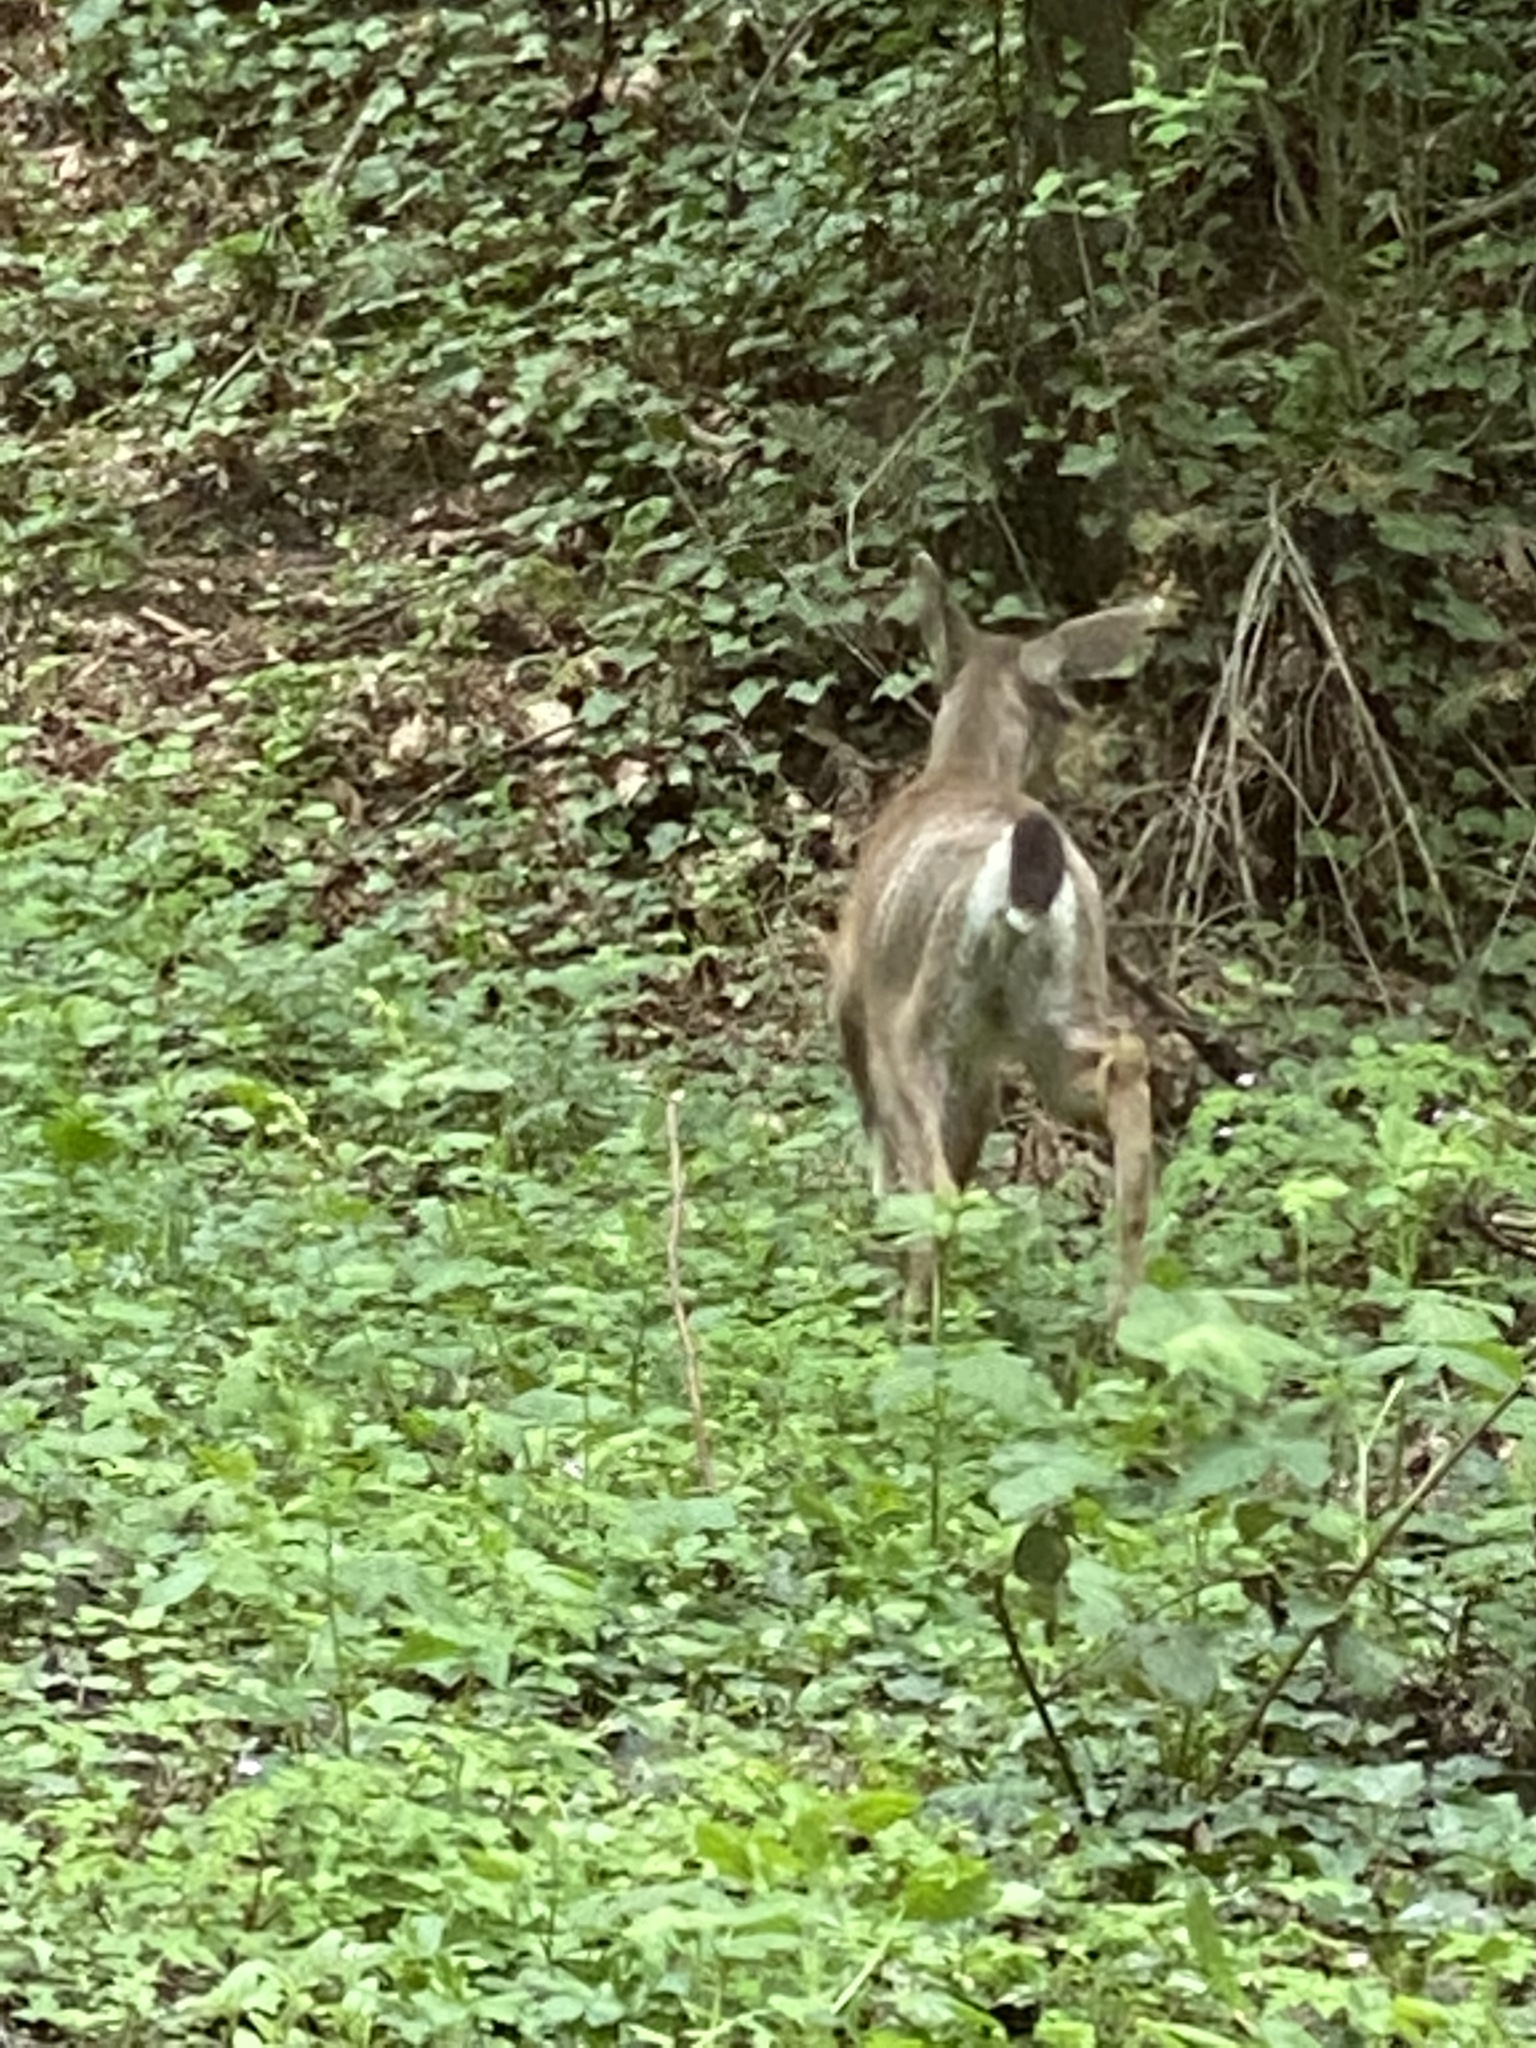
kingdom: Animalia
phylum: Chordata
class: Mammalia
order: Artiodactyla
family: Cervidae
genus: Odocoileus
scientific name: Odocoileus hemionus
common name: Mule deer
